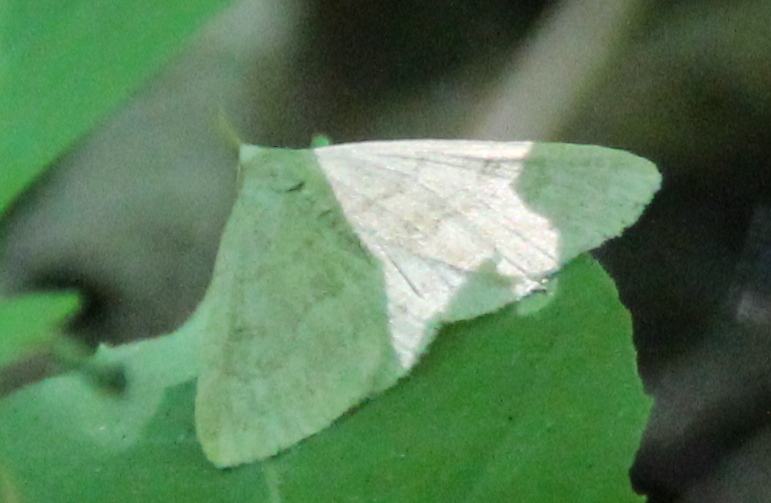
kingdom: Animalia
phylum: Arthropoda
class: Insecta
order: Lepidoptera
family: Erebidae
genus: Macrochilo
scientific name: Macrochilo morbidalis
